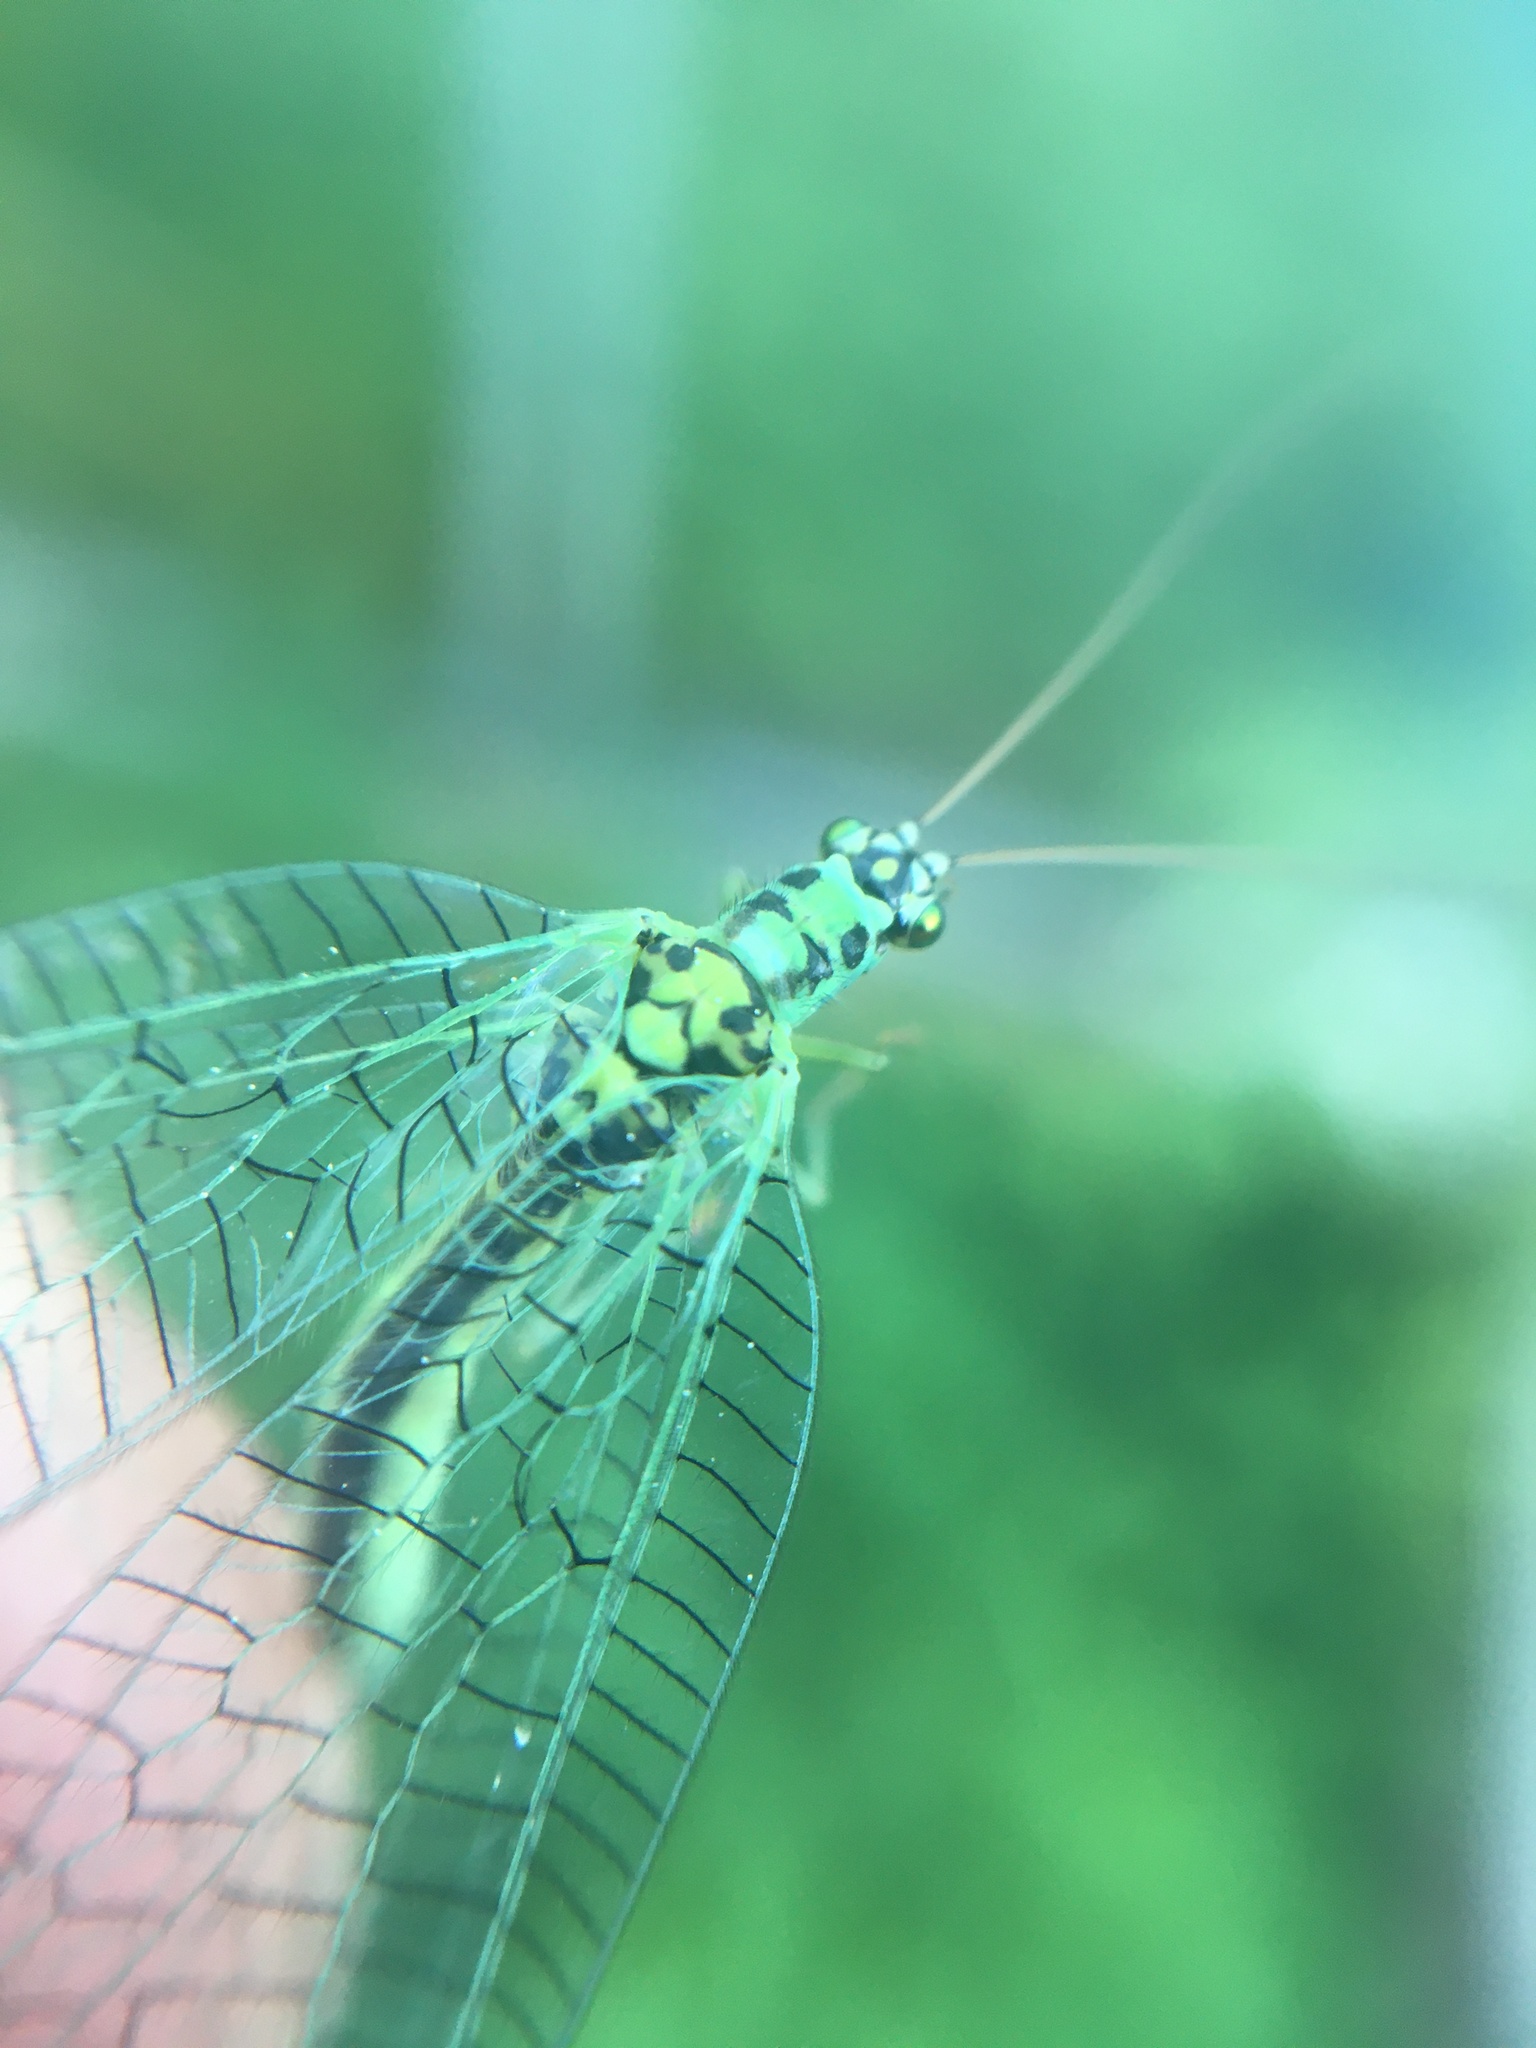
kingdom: Animalia
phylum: Arthropoda
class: Insecta
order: Neuroptera
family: Chrysopidae
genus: Chrysopa
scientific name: Chrysopa perla
